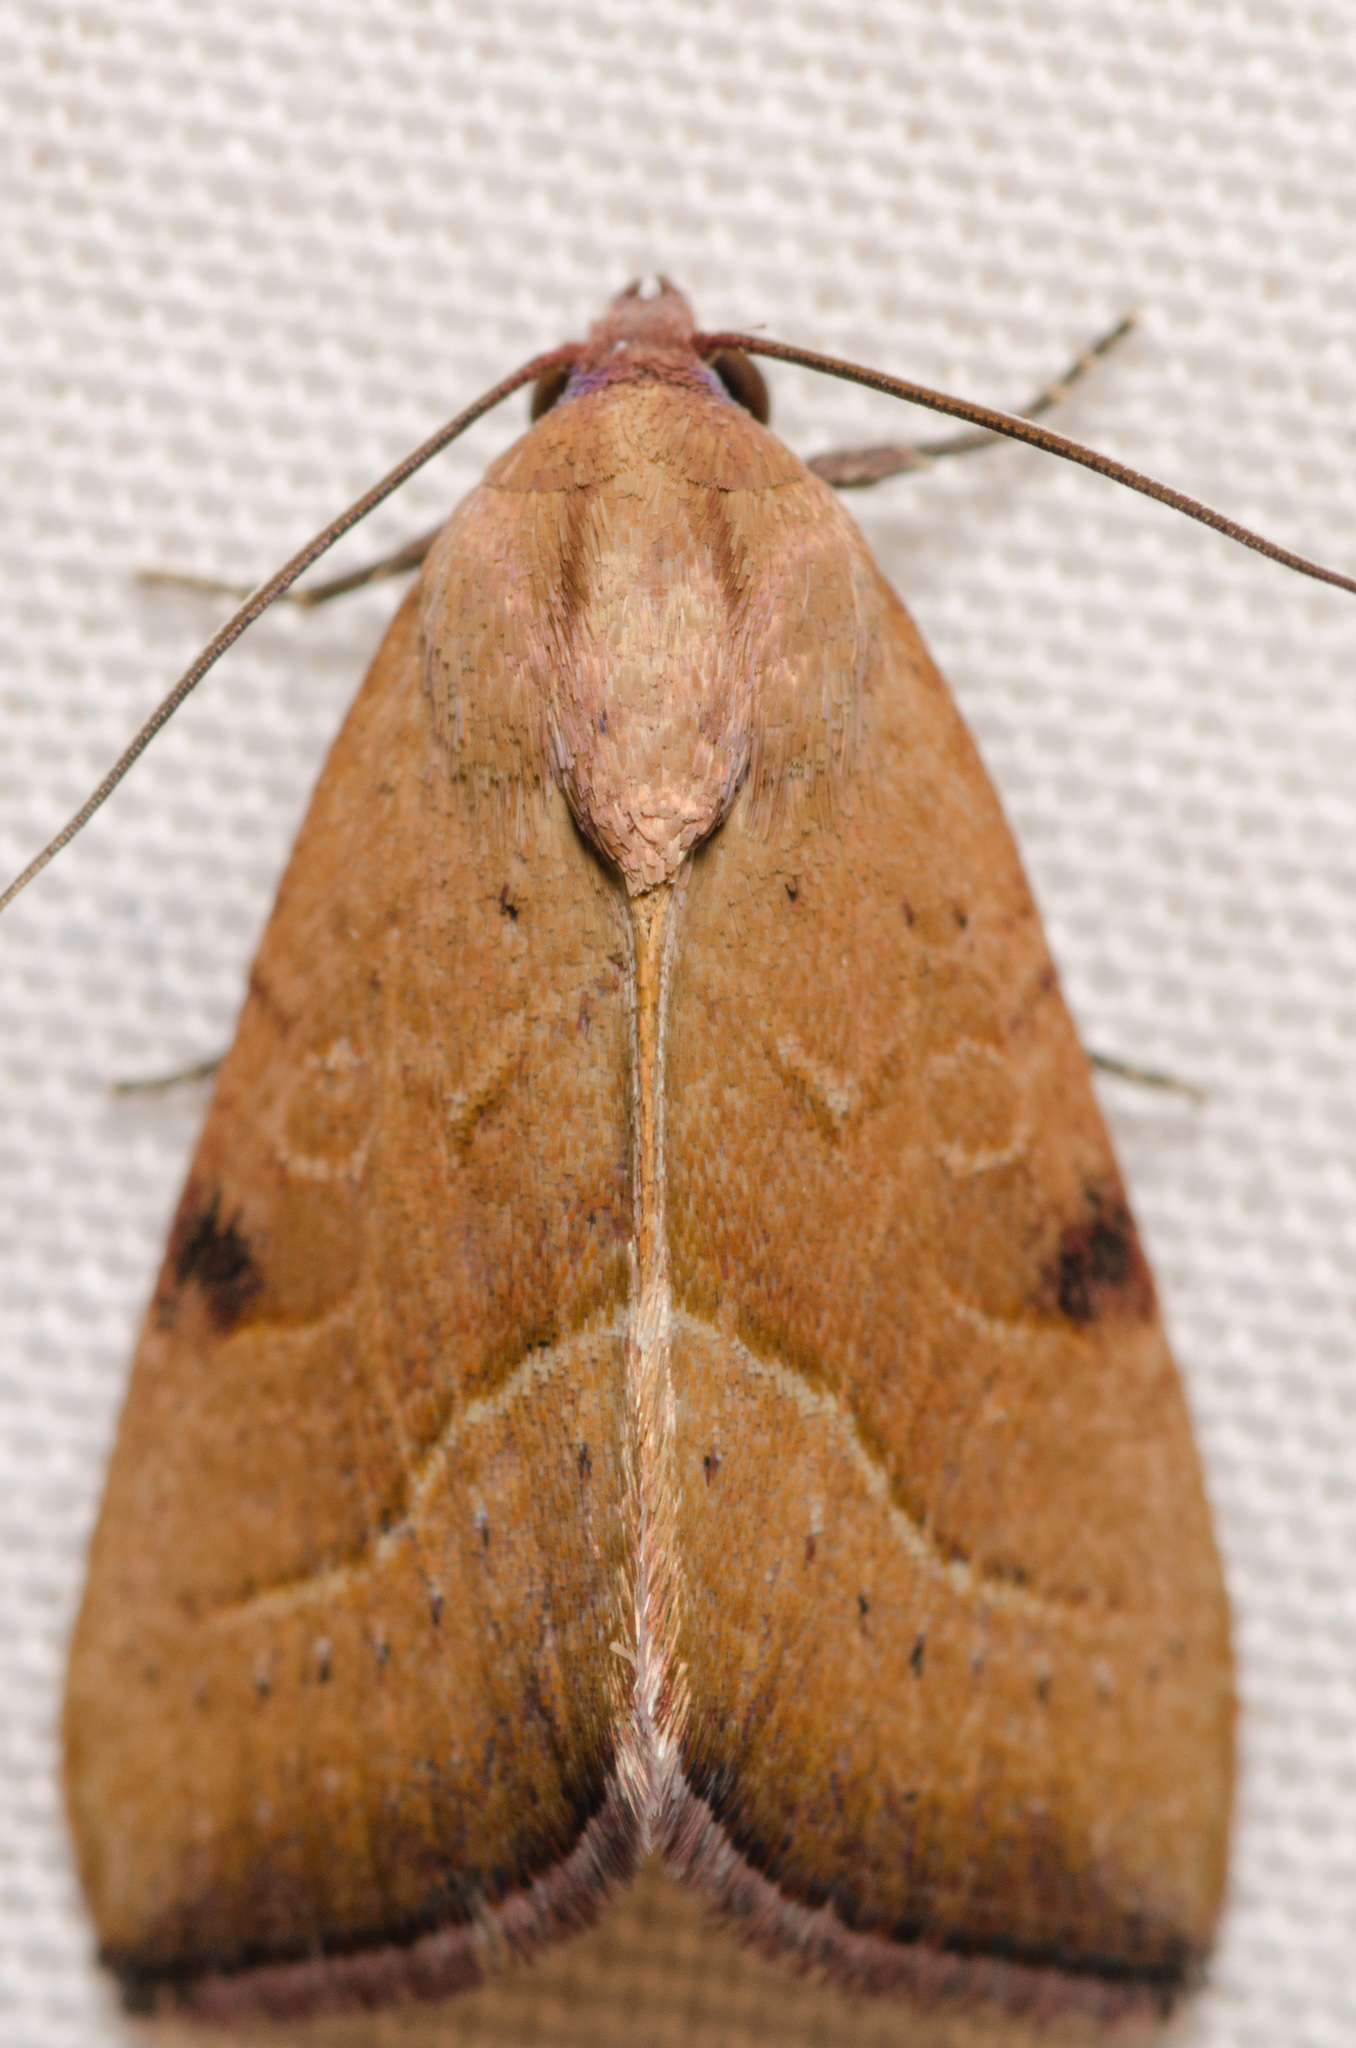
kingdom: Animalia
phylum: Arthropoda
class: Insecta
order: Lepidoptera
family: Noctuidae
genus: Galgula
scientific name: Galgula partita
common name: Wedgeling
